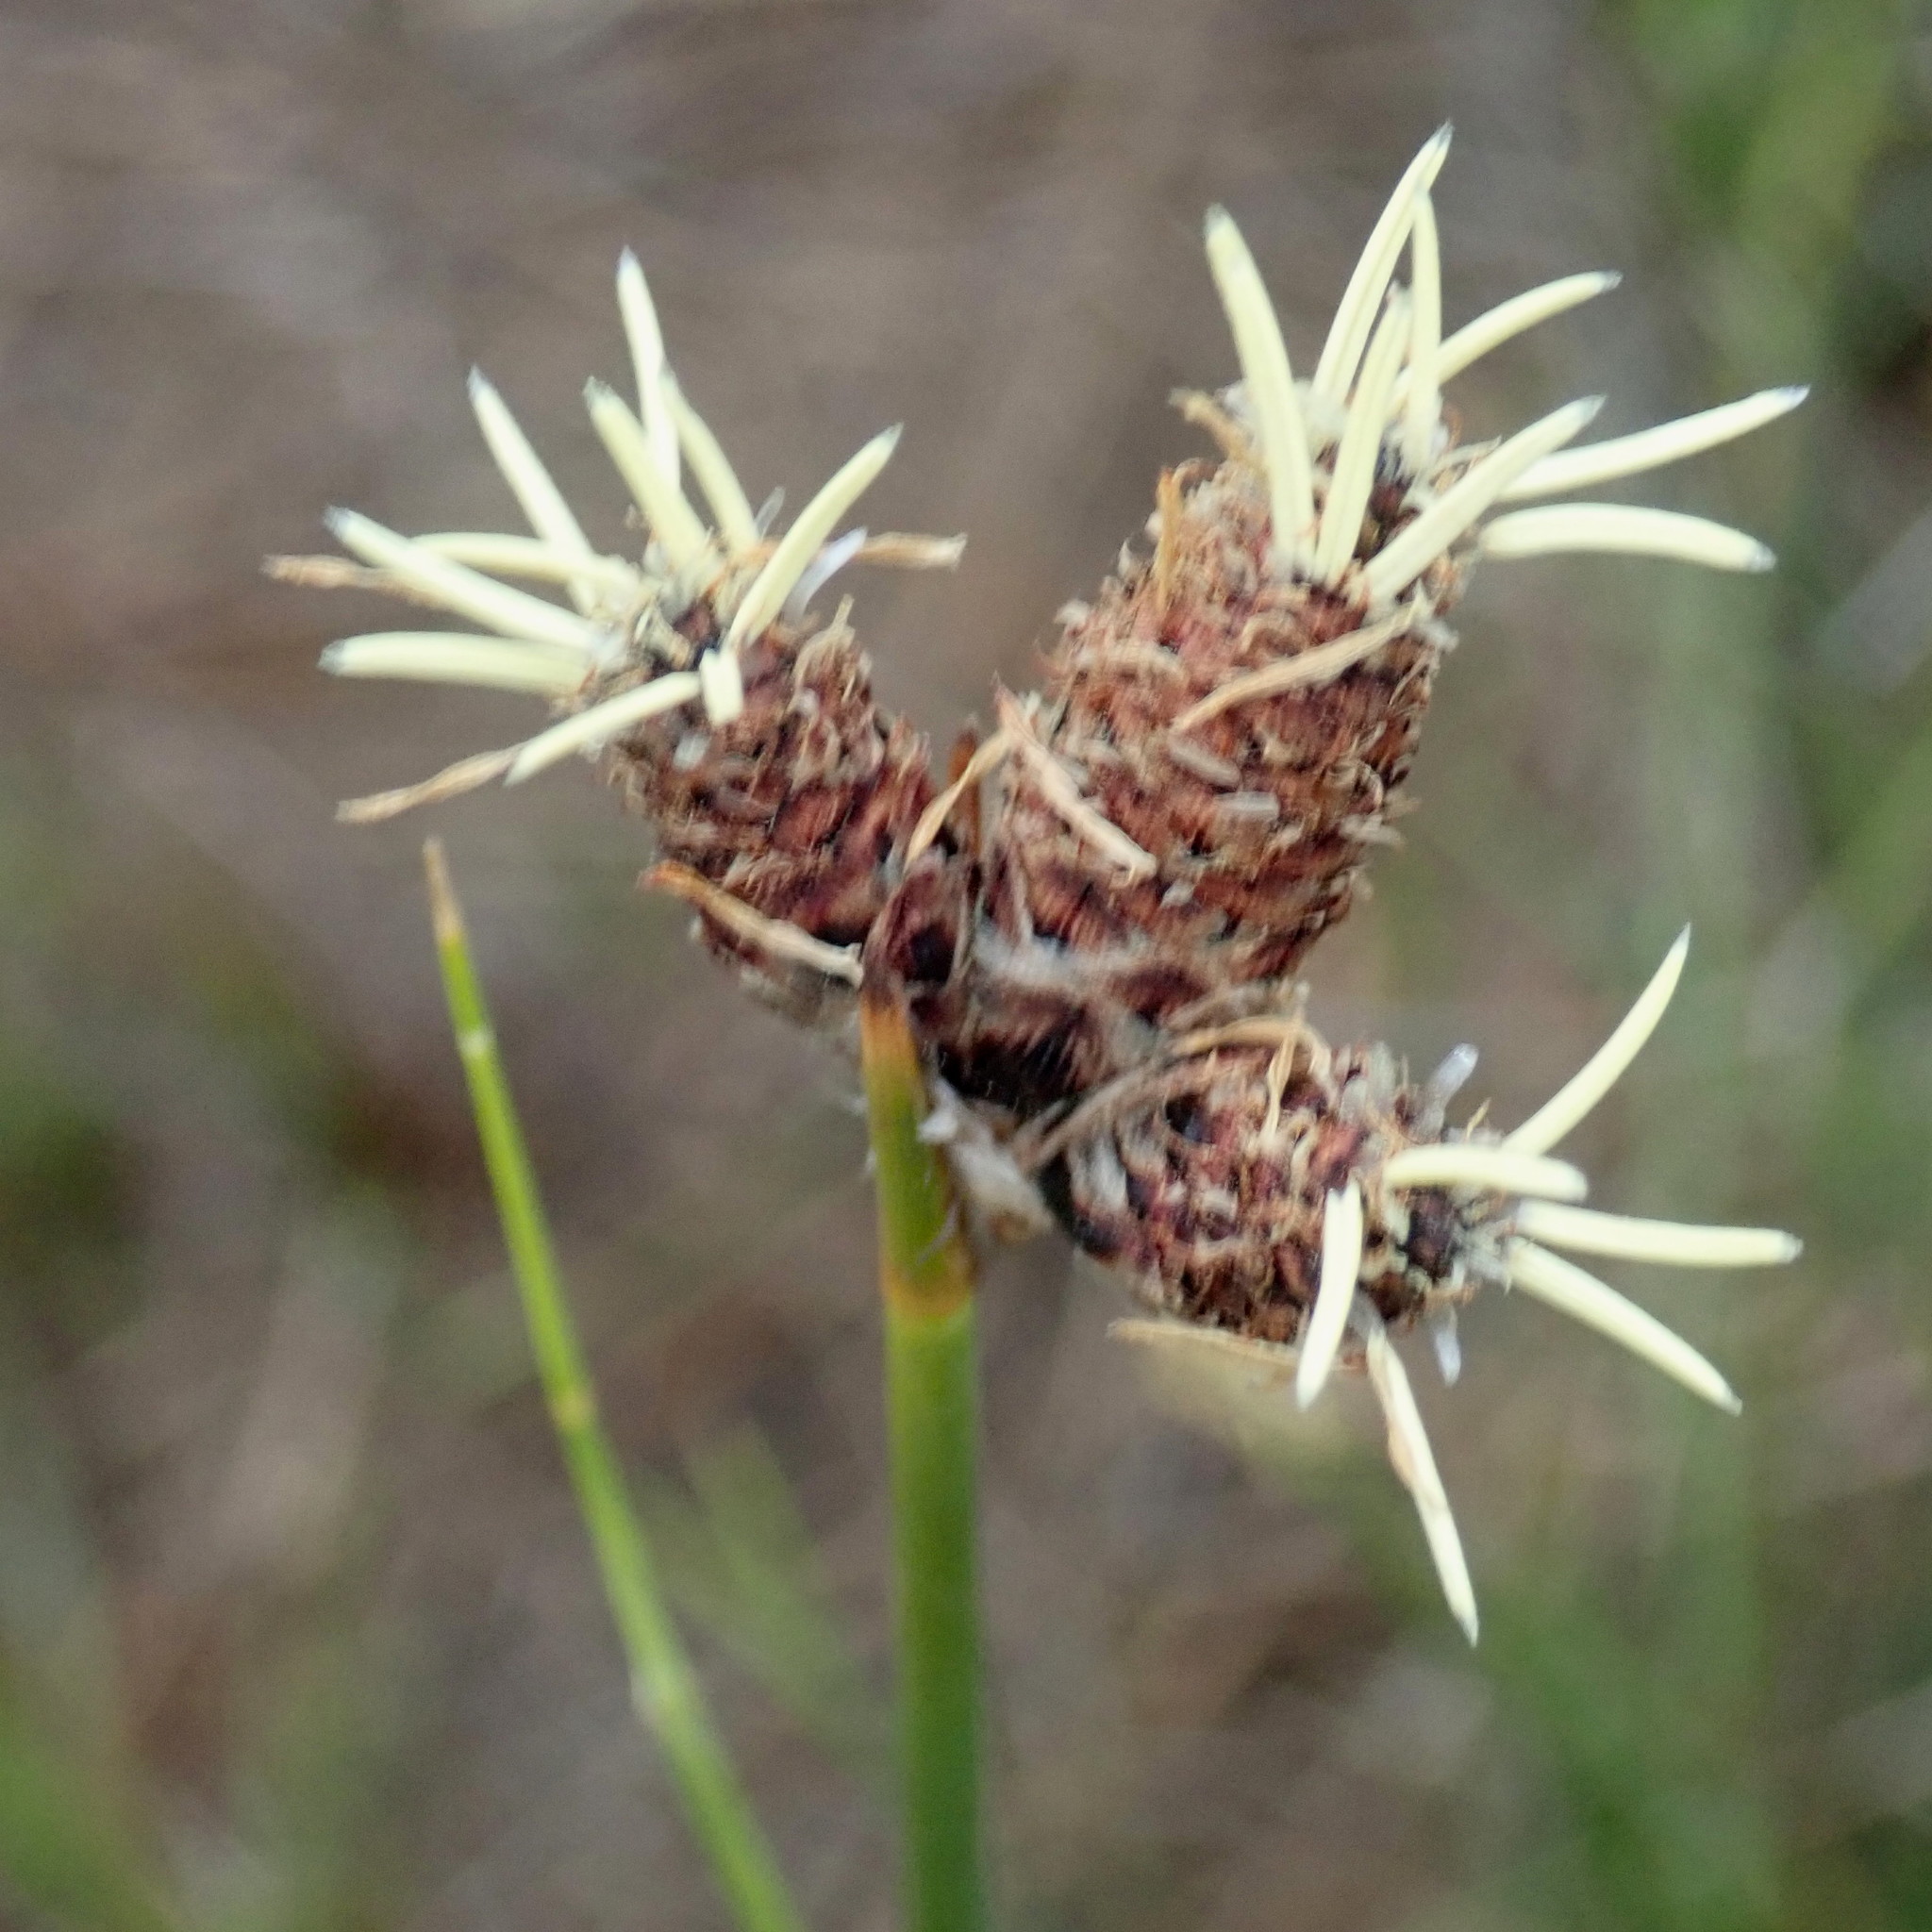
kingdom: Plantae
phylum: Tracheophyta
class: Liliopsida
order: Poales
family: Cyperaceae
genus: Hellmuthia
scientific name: Hellmuthia membranacea
